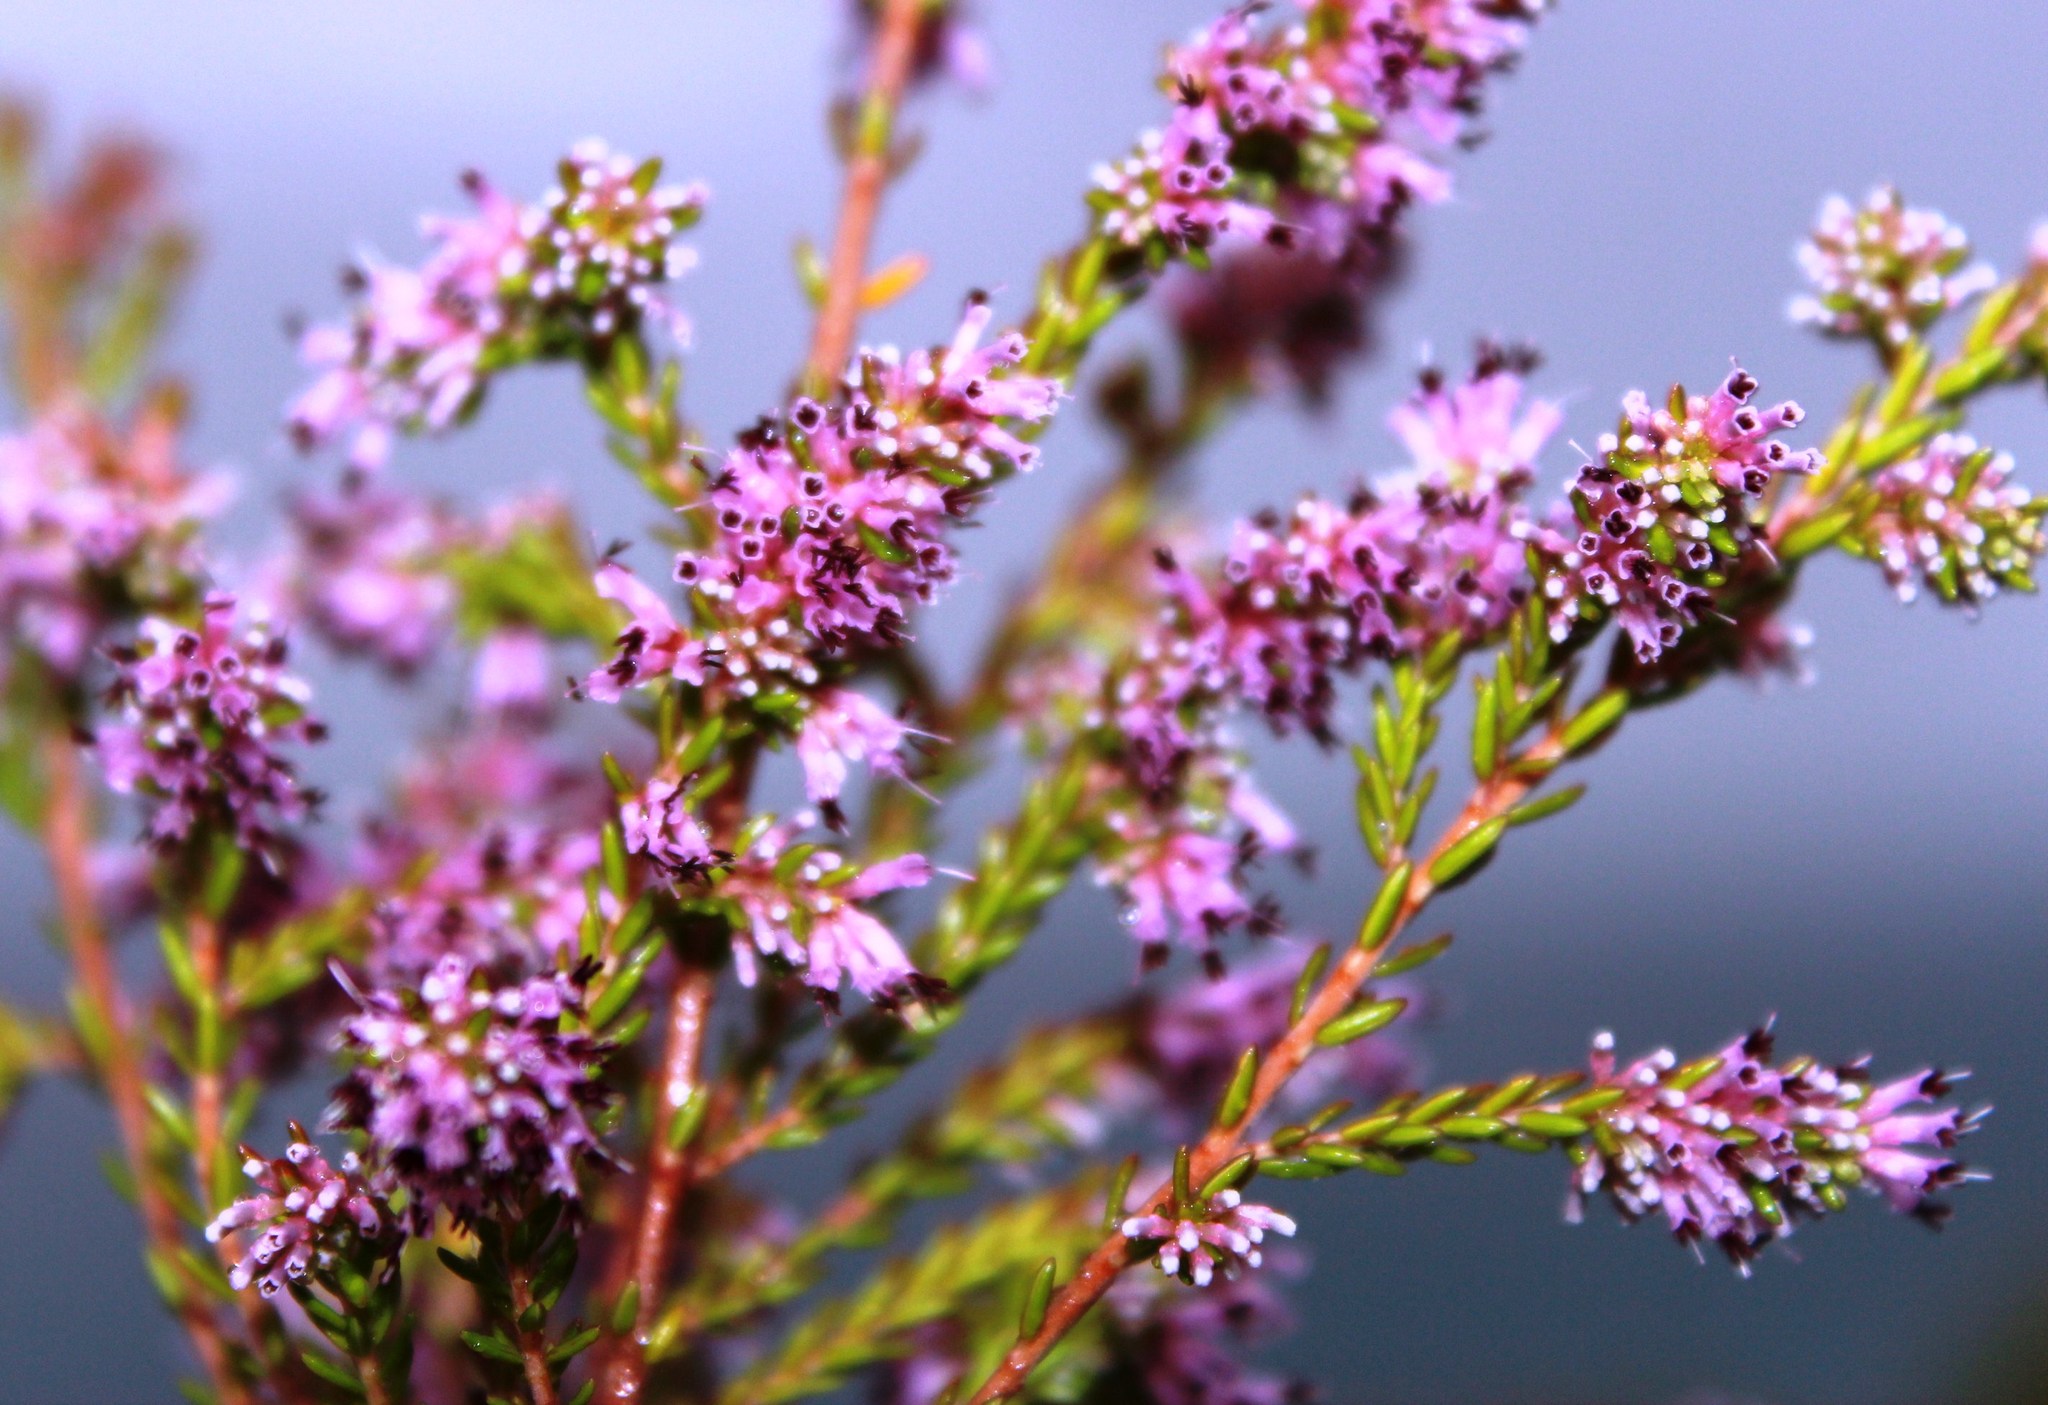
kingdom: Plantae
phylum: Tracheophyta
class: Magnoliopsida
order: Ericales
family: Ericaceae
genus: Erica
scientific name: Erica uberiflora
